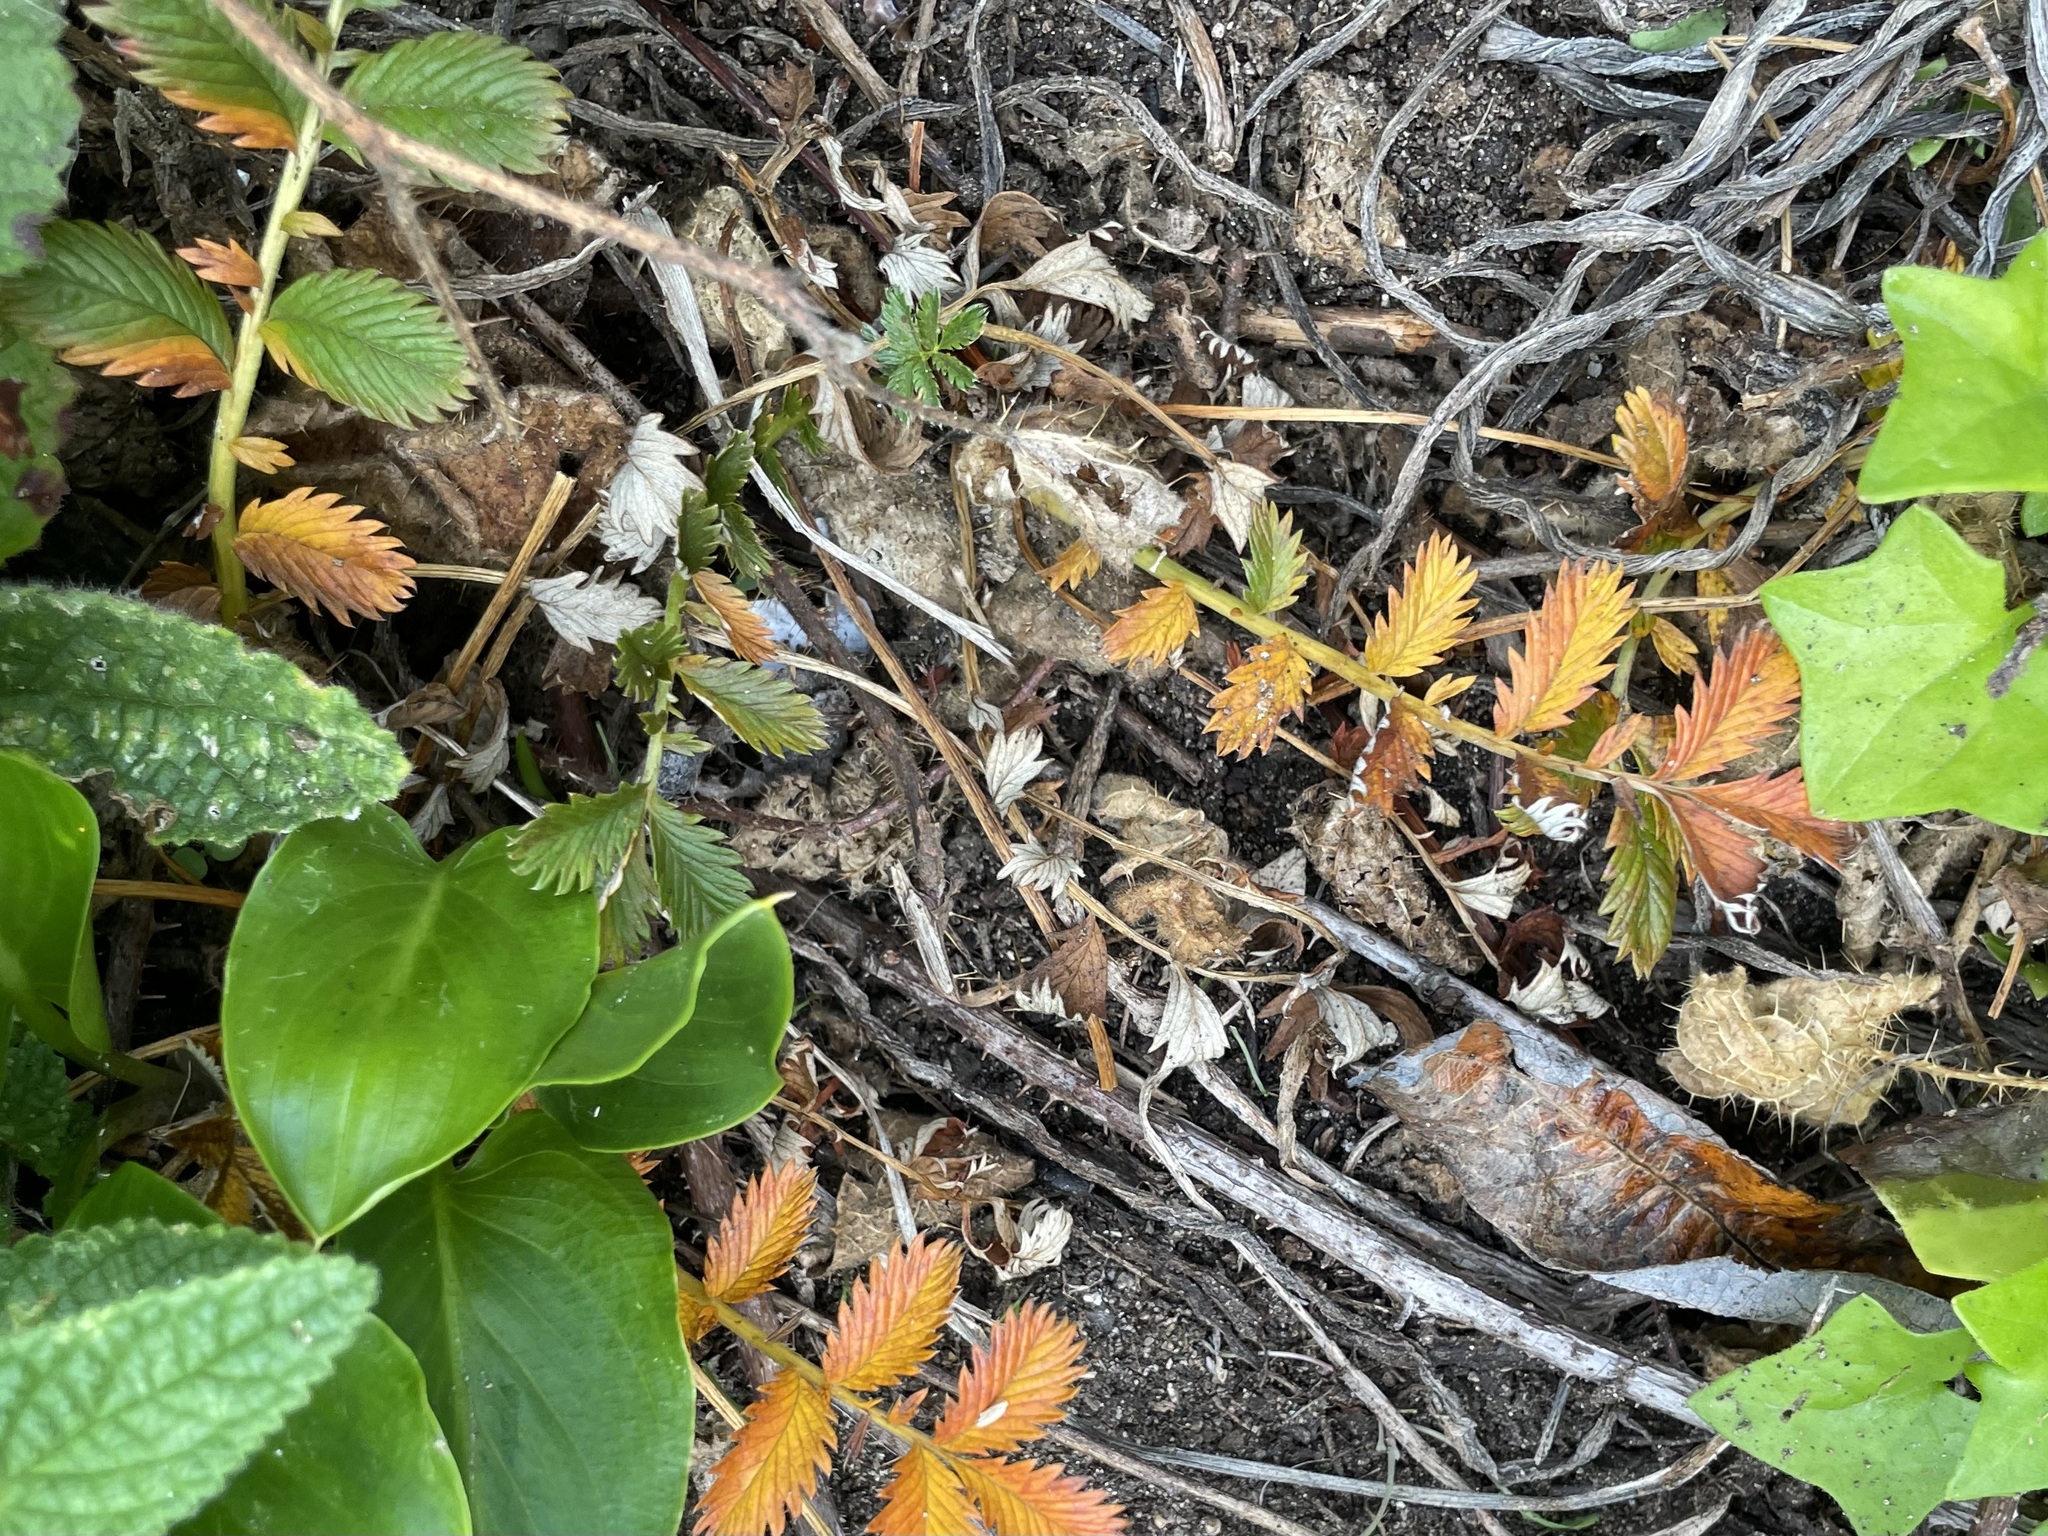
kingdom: Plantae
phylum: Tracheophyta
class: Magnoliopsida
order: Rosales
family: Rosaceae
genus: Argentina
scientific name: Argentina anserina
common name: Common silverweed
